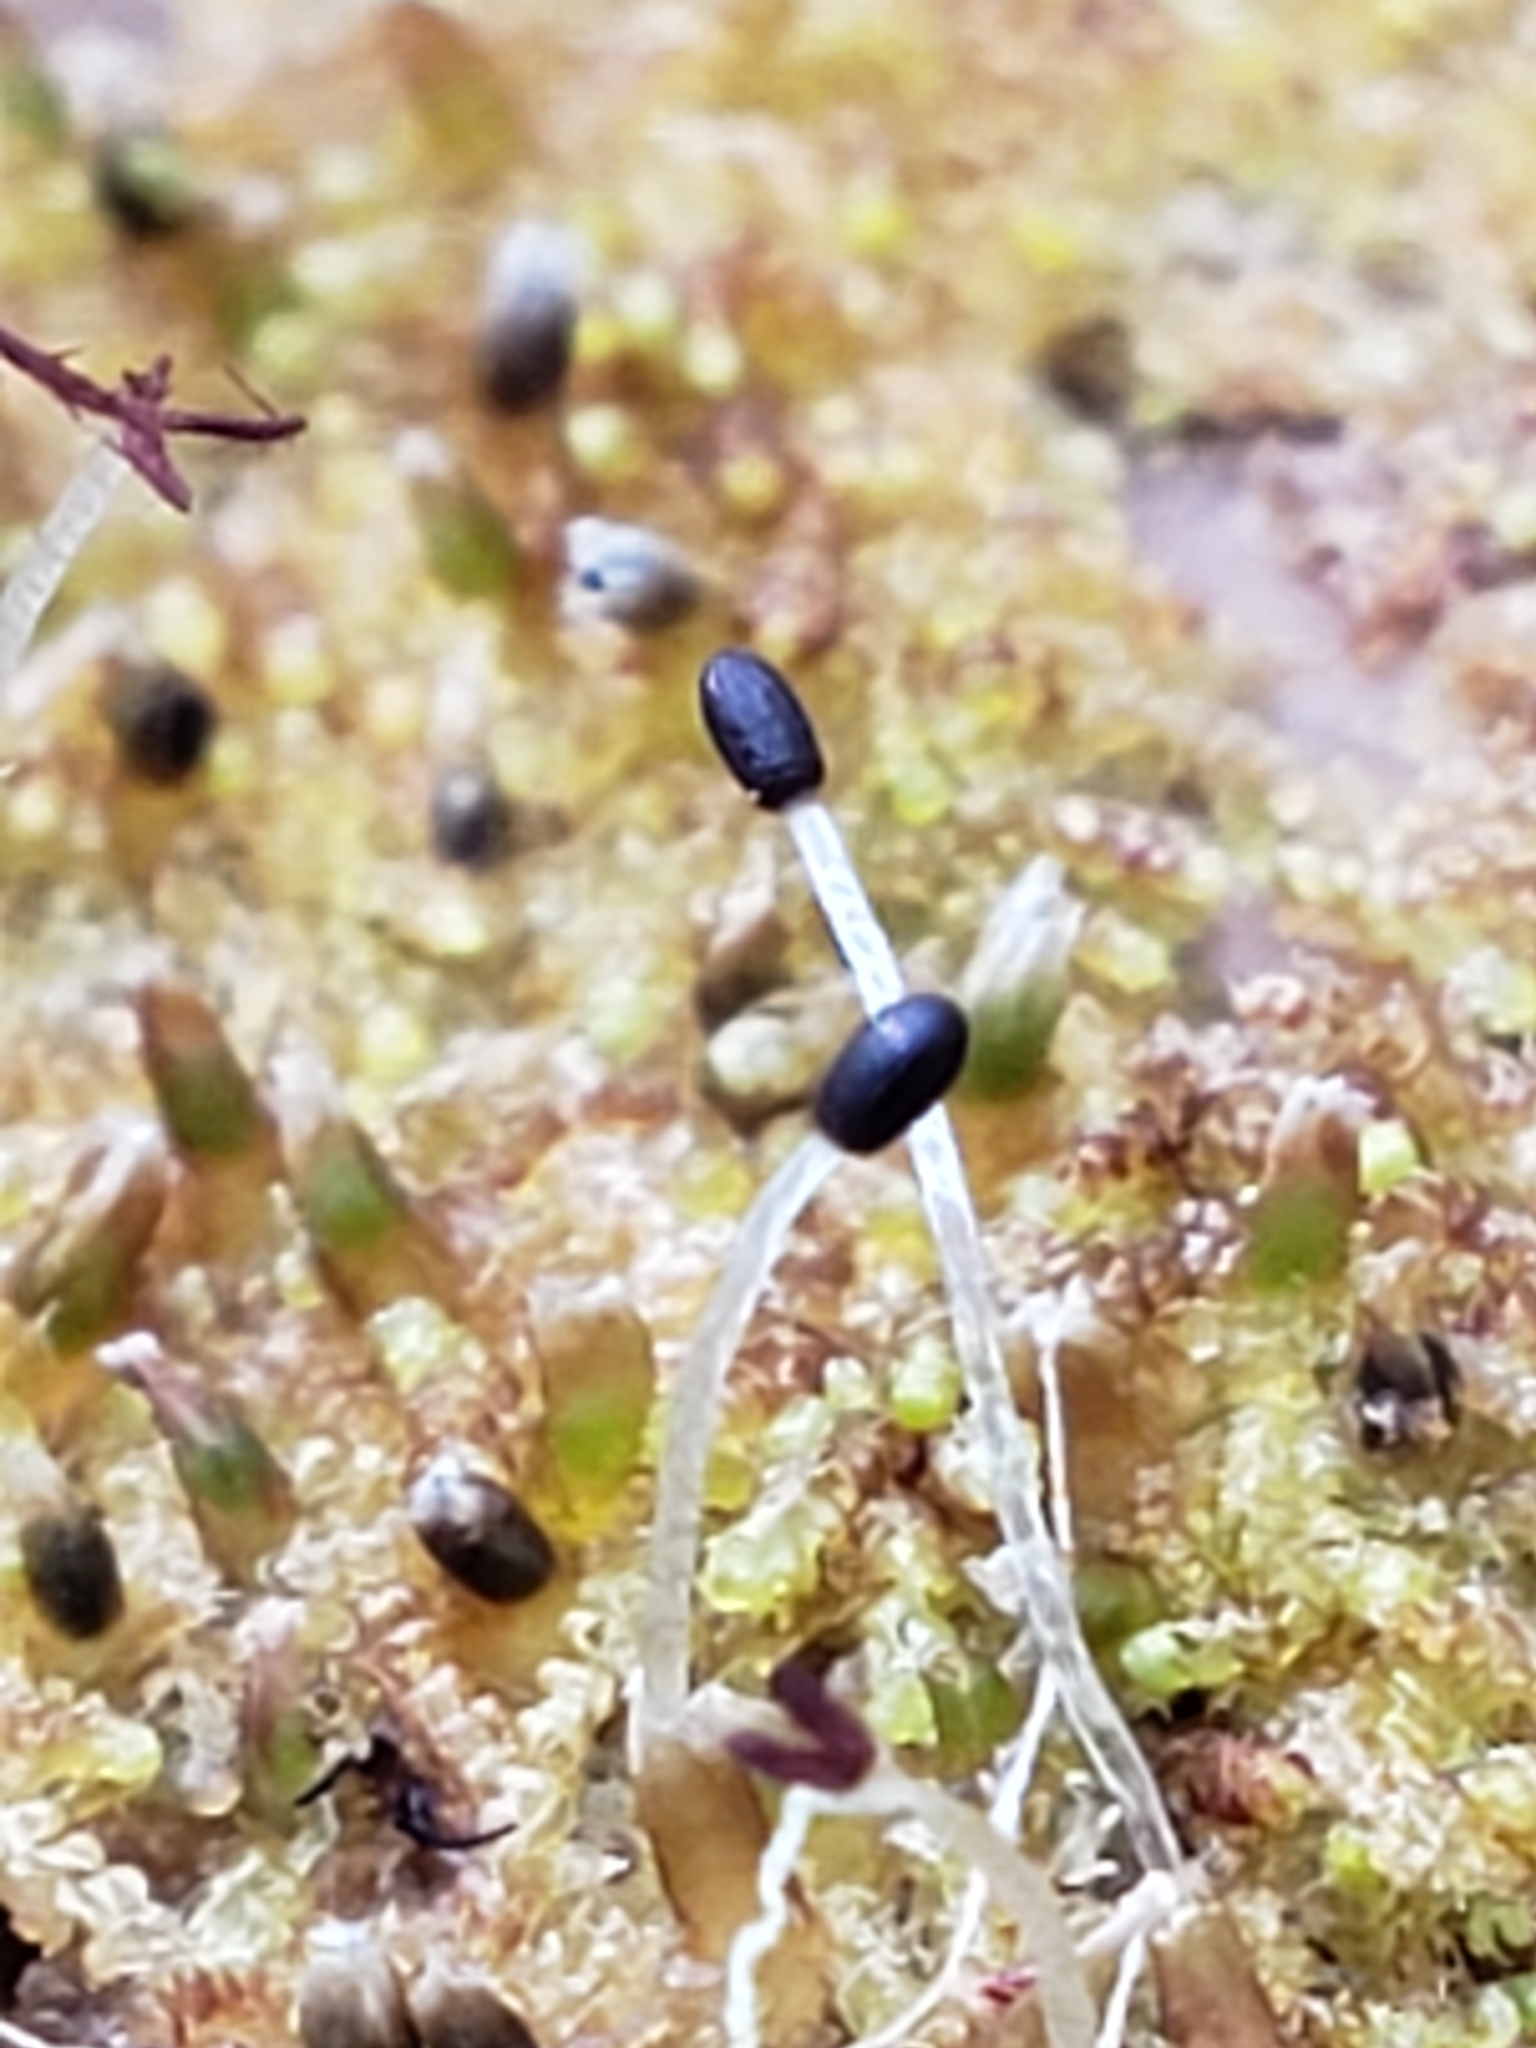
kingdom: Plantae
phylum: Marchantiophyta
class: Jungermanniopsida
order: Jungermanniales
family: Cephaloziaceae
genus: Nowellia
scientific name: Nowellia curvifolia
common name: Wood rustwort
